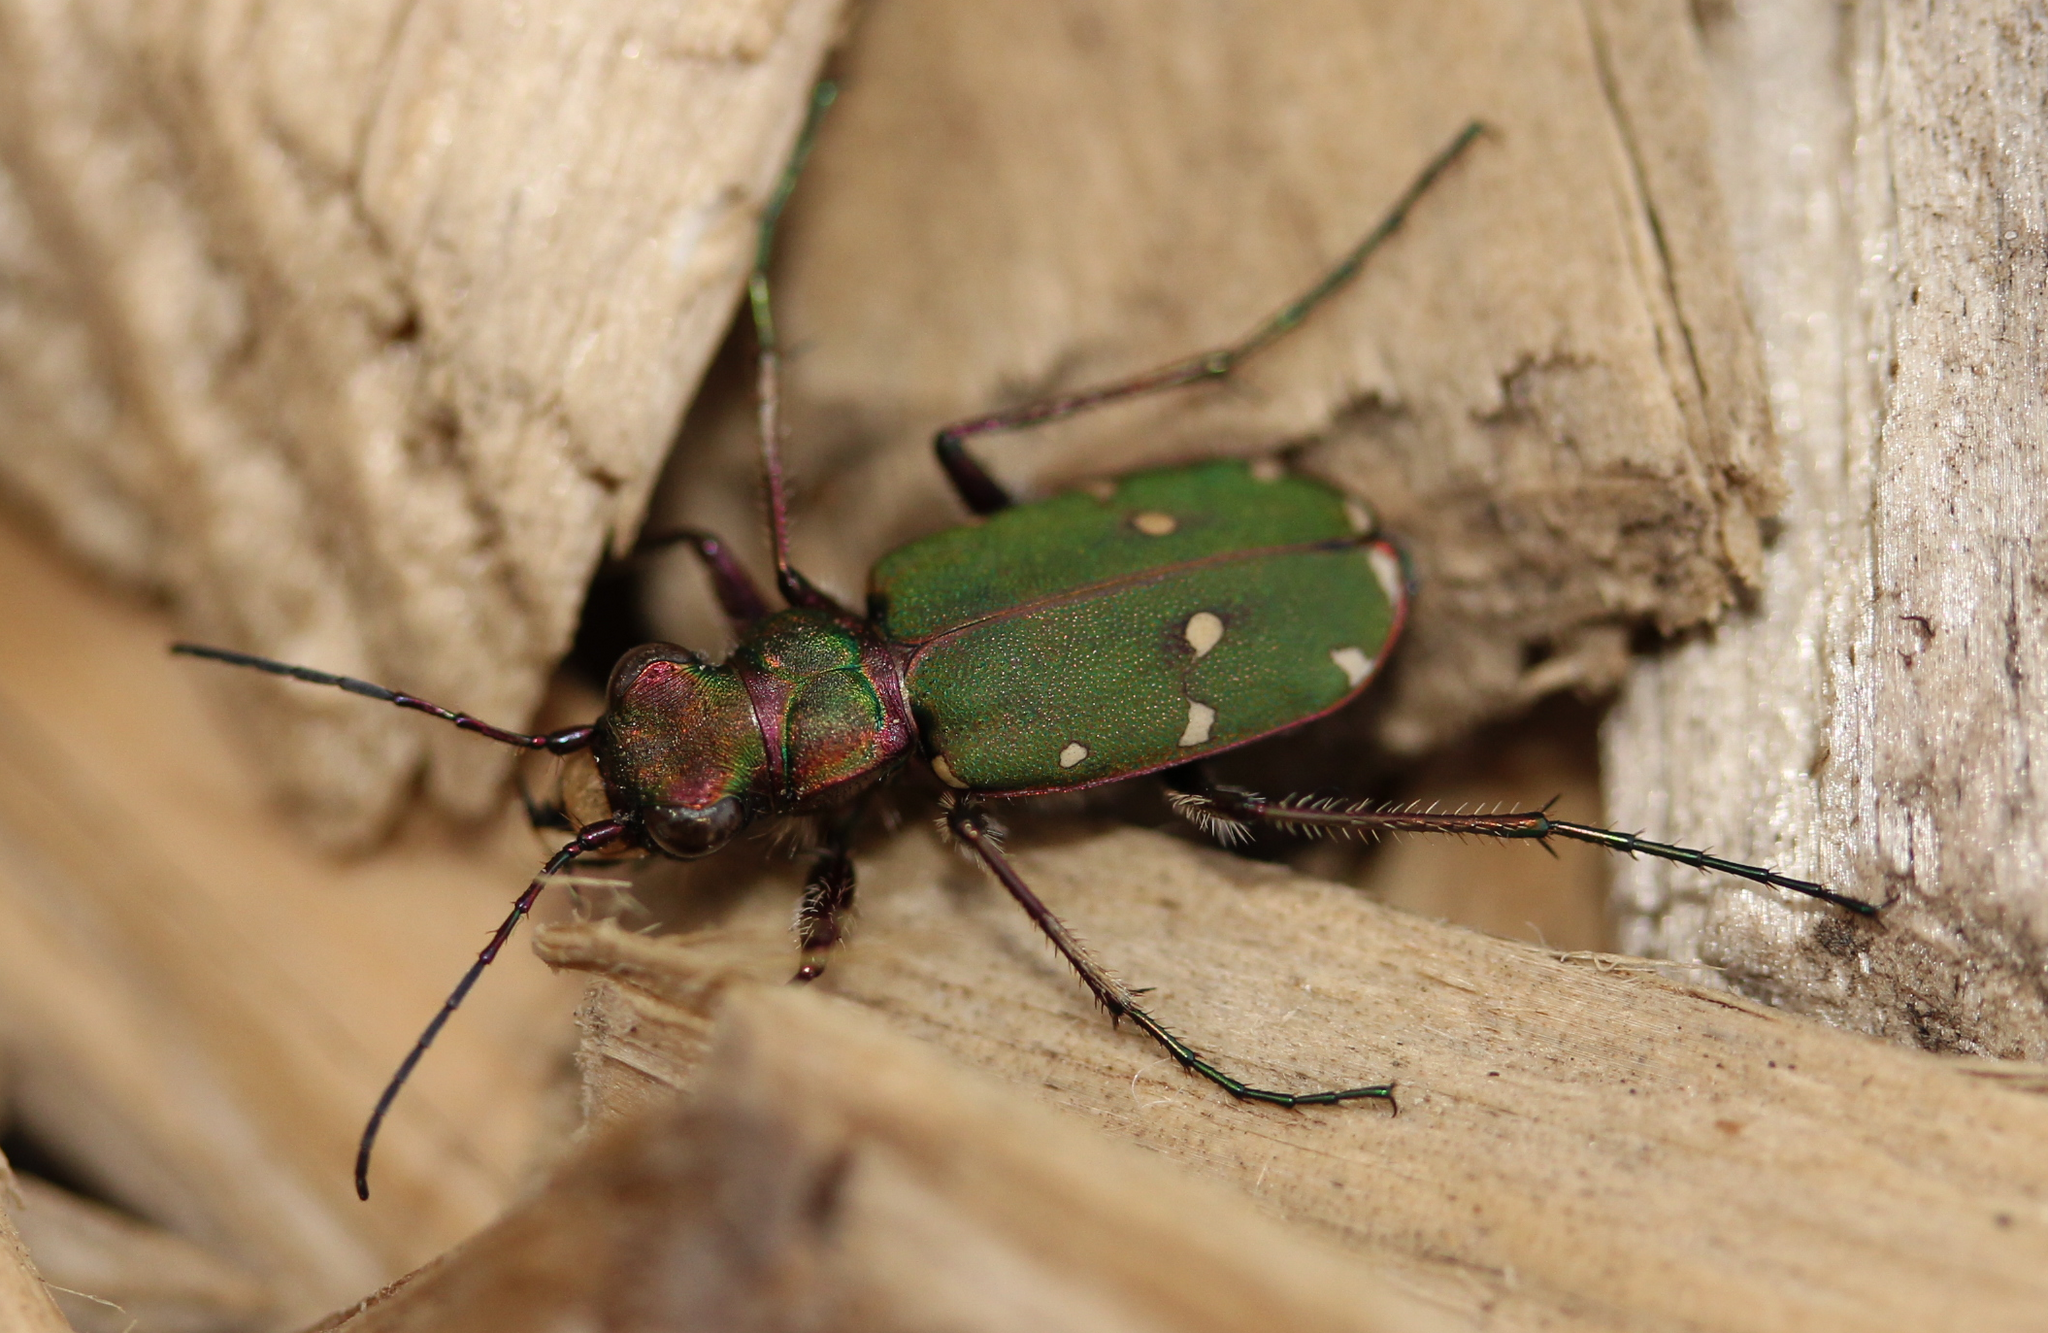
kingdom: Animalia
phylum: Arthropoda
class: Insecta
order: Coleoptera
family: Carabidae
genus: Cicindela
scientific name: Cicindela campestris
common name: Common tiger beetle
